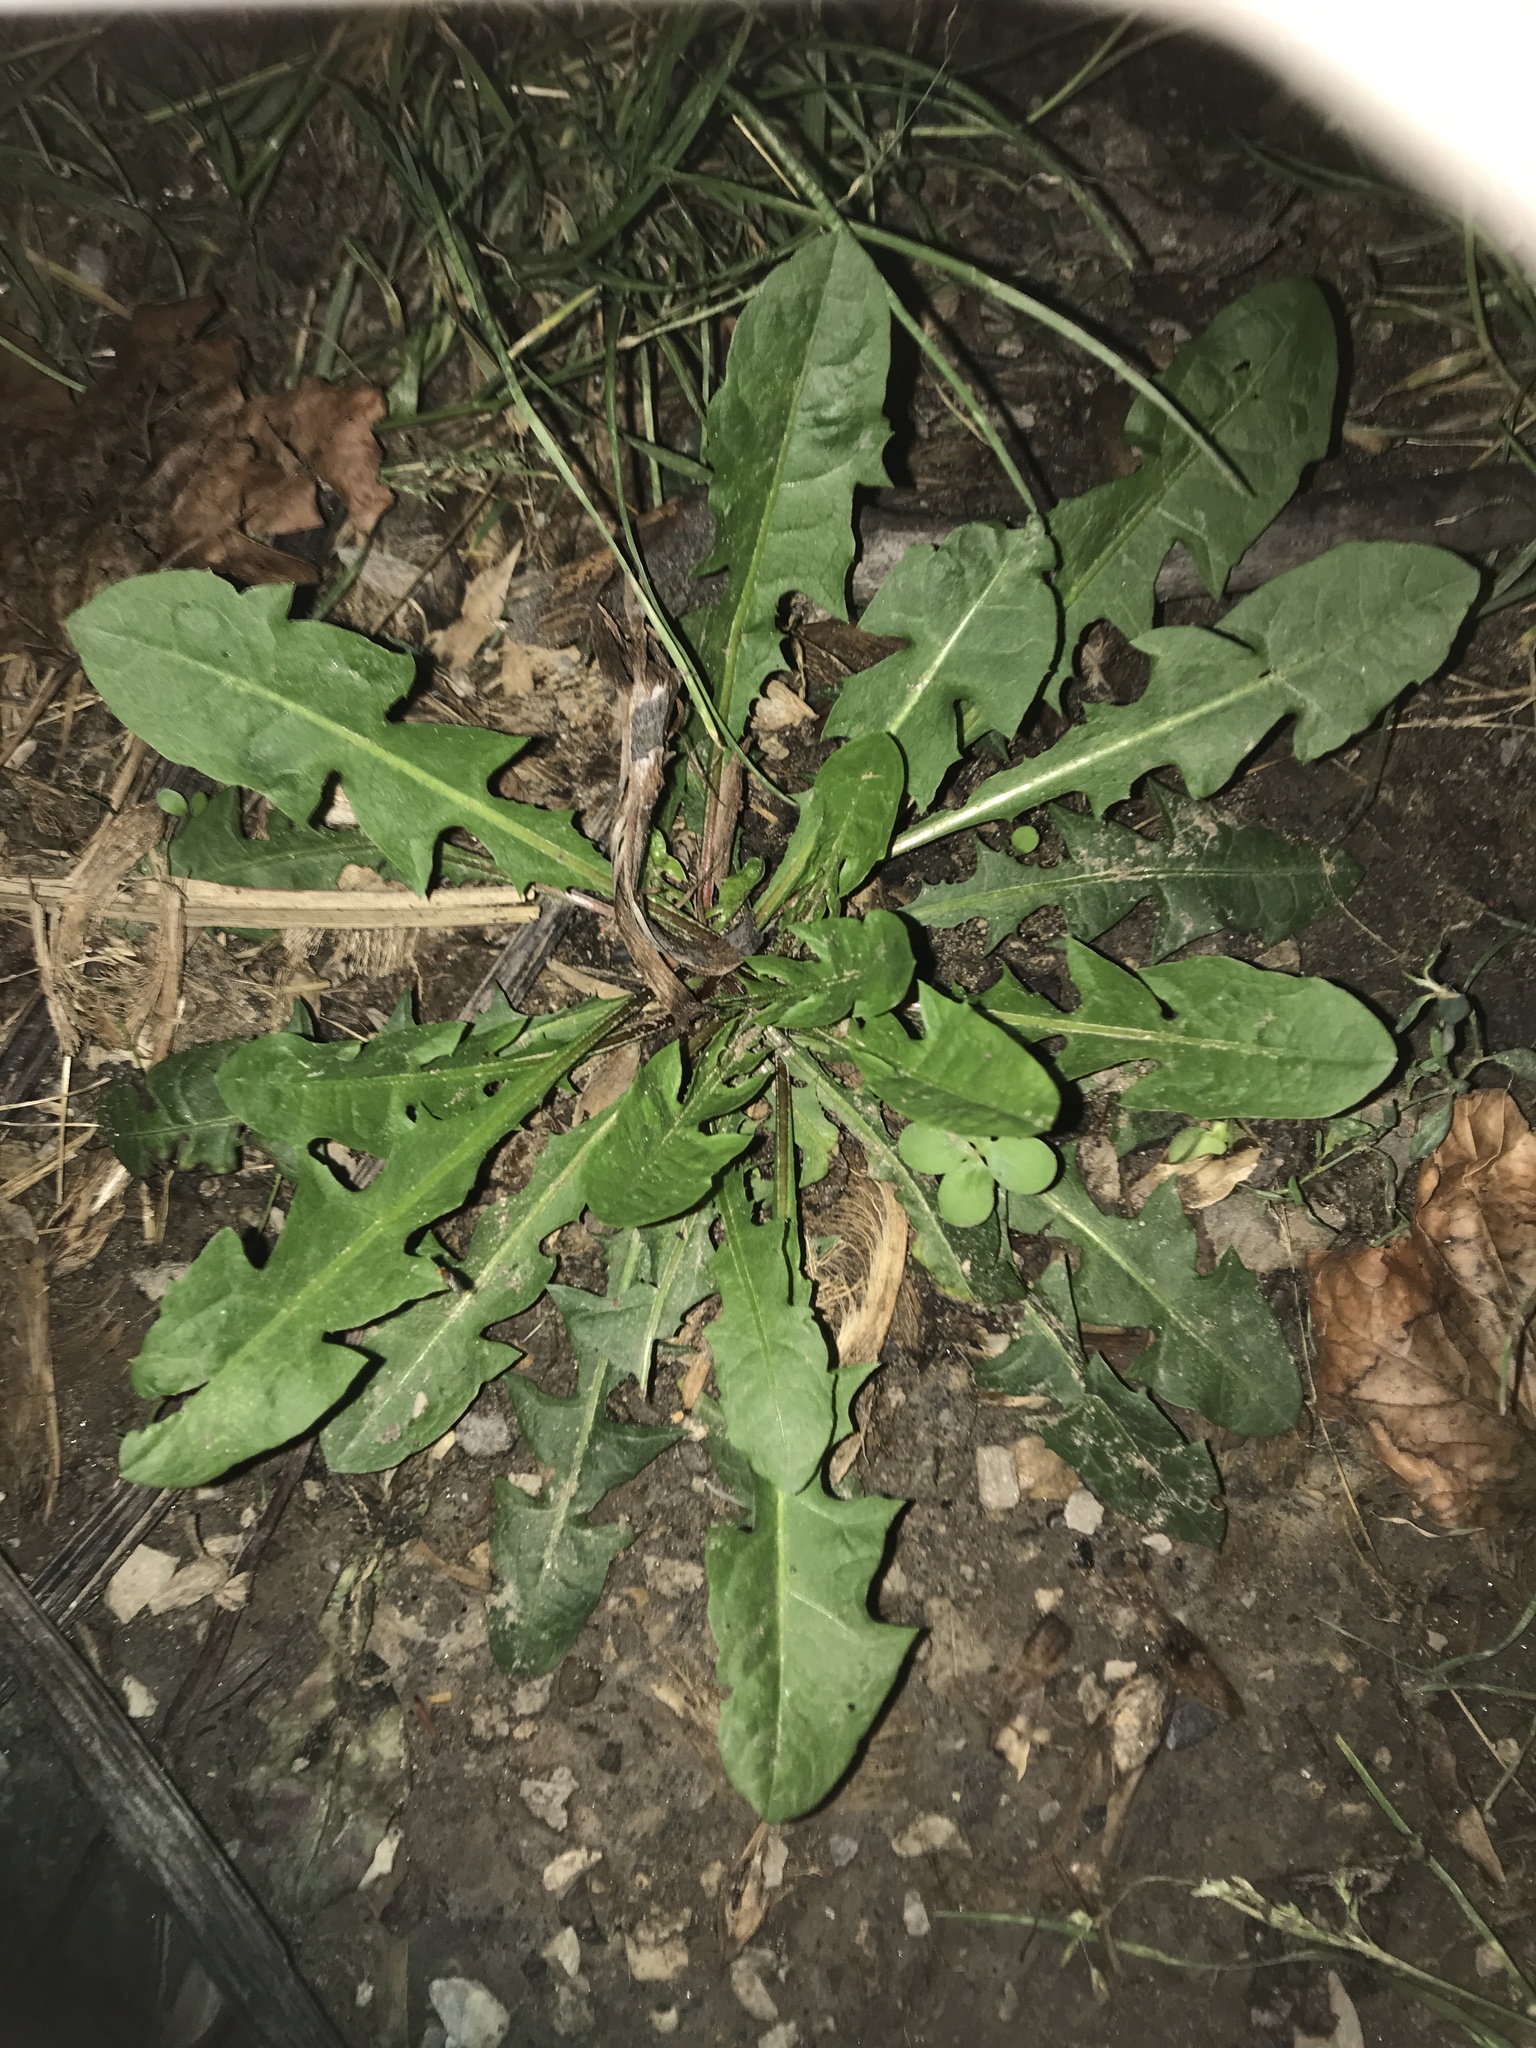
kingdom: Plantae
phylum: Tracheophyta
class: Magnoliopsida
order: Asterales
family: Asteraceae
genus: Taraxacum
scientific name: Taraxacum officinale
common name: Common dandelion
